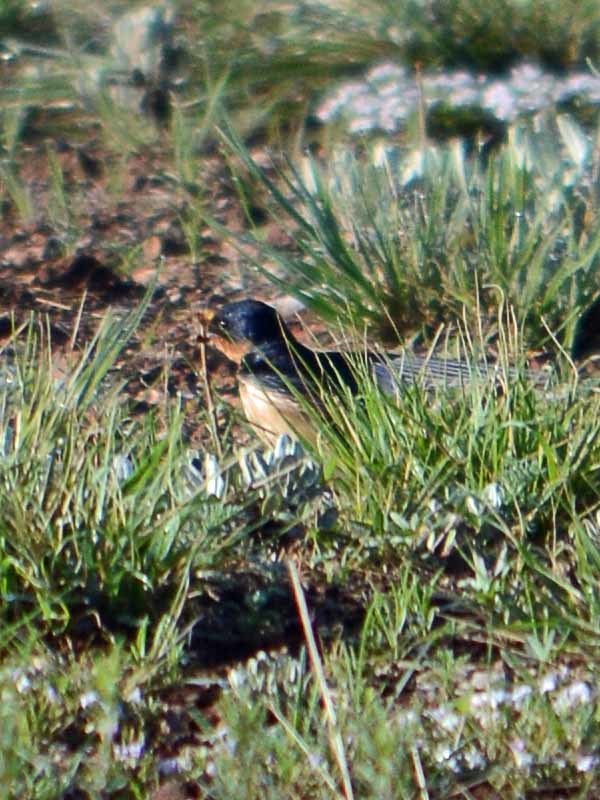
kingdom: Animalia
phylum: Chordata
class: Aves
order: Passeriformes
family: Hirundinidae
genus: Hirundo
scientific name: Hirundo rustica
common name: Barn swallow
